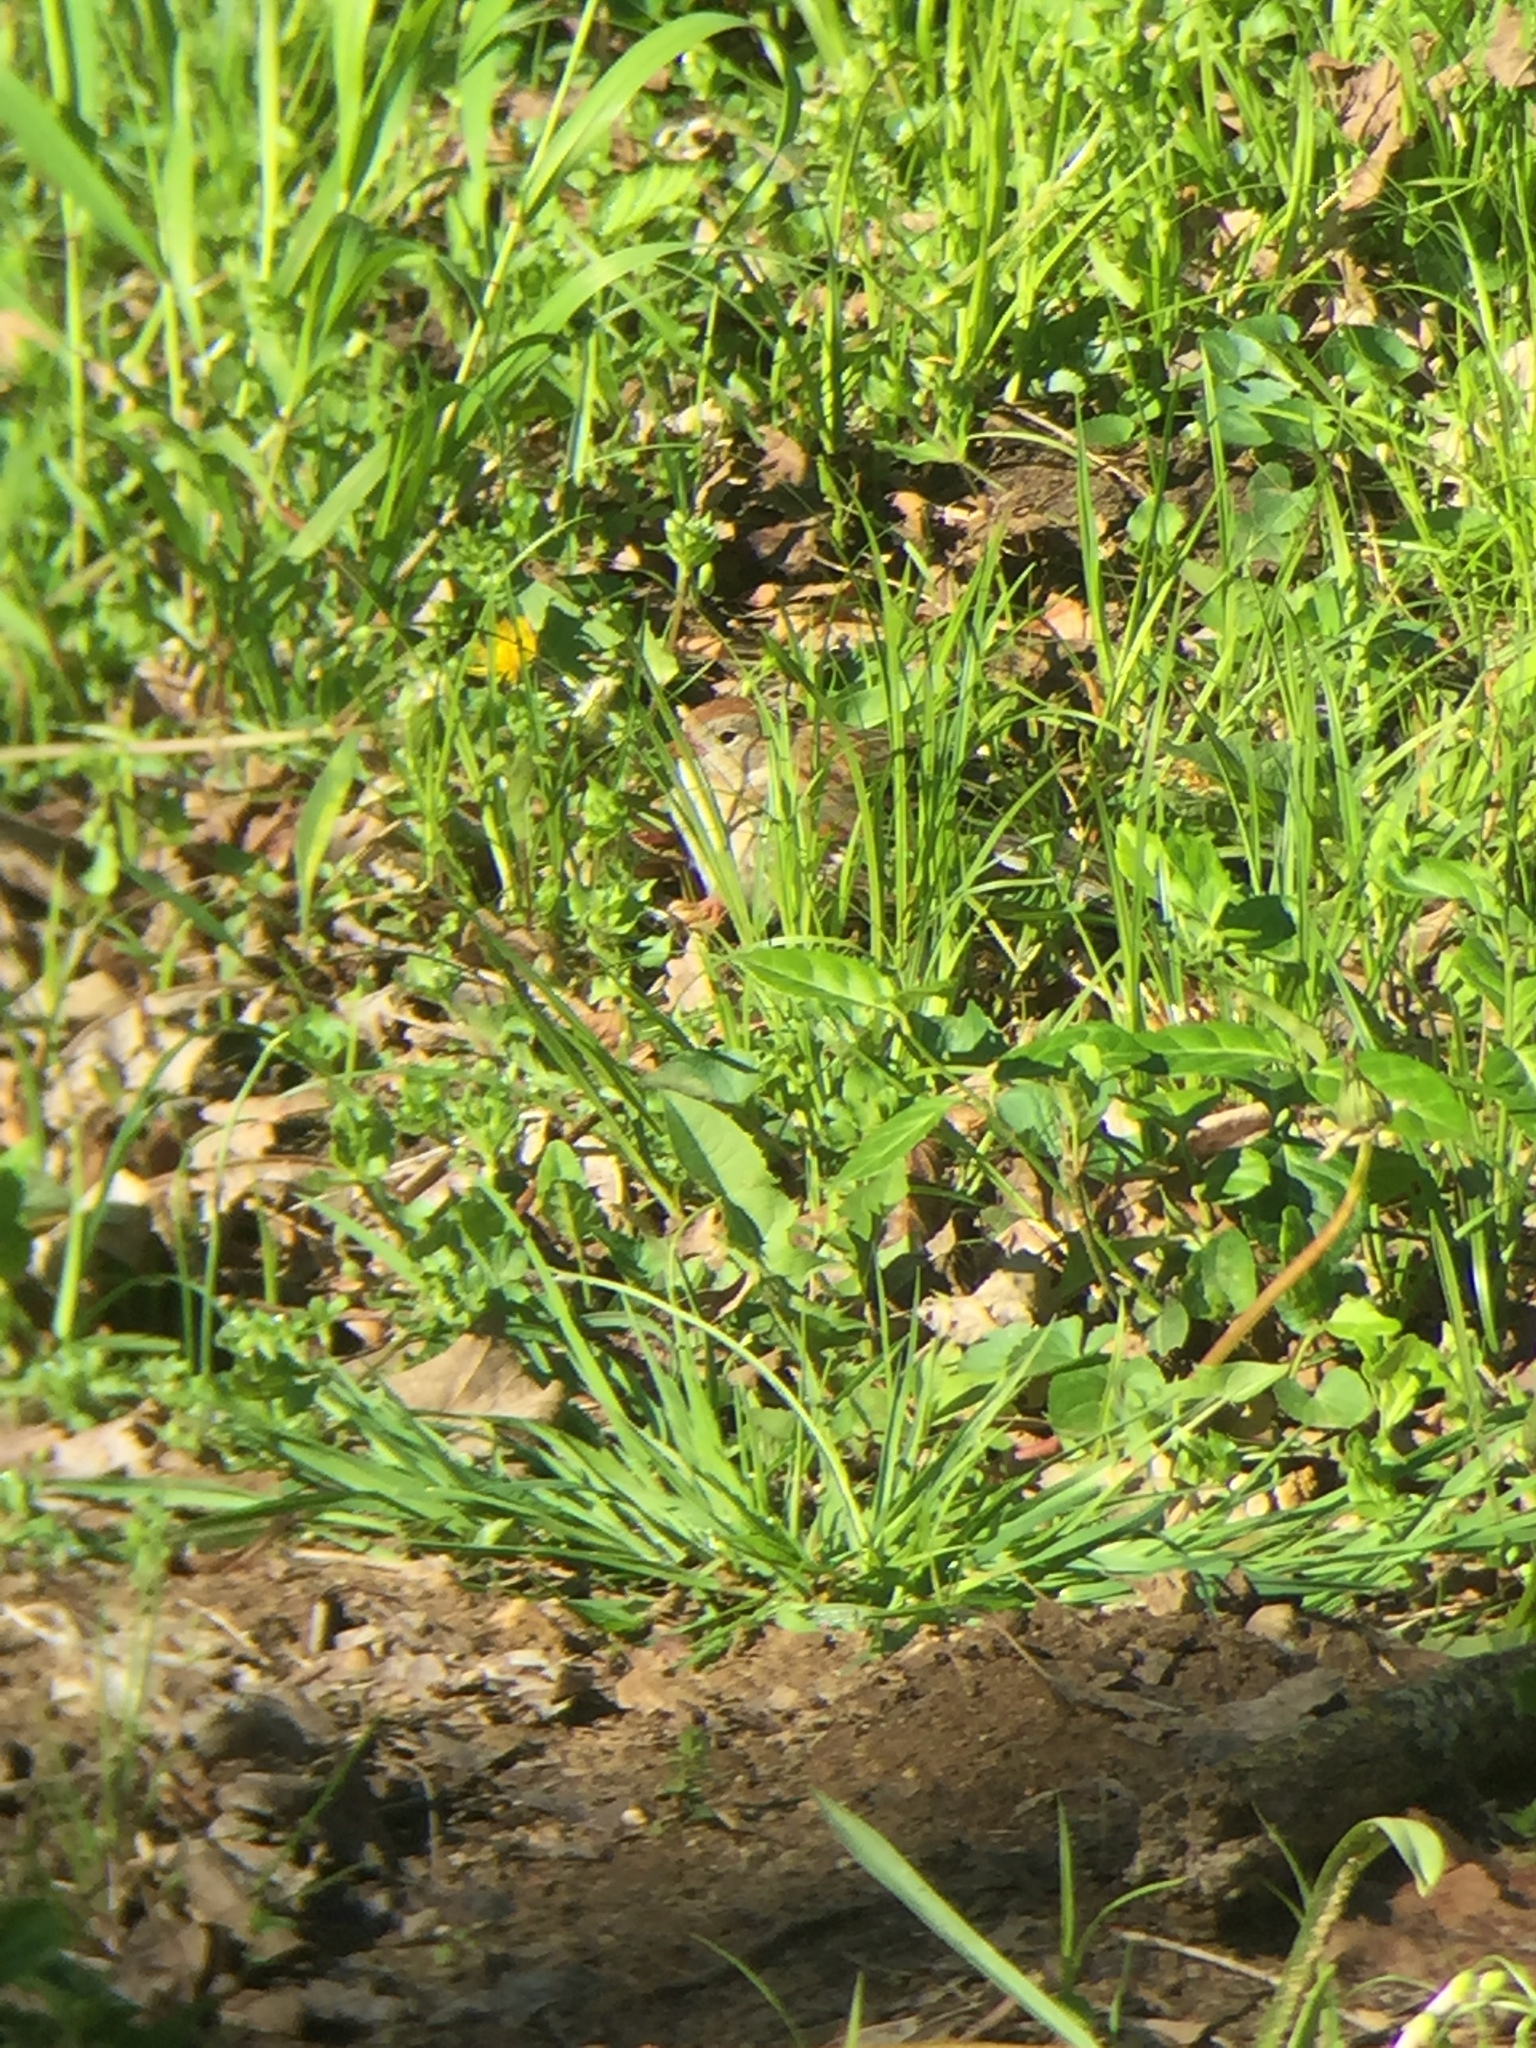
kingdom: Animalia
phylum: Chordata
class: Aves
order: Passeriformes
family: Passerellidae
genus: Spizella
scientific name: Spizella pusilla
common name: Field sparrow
